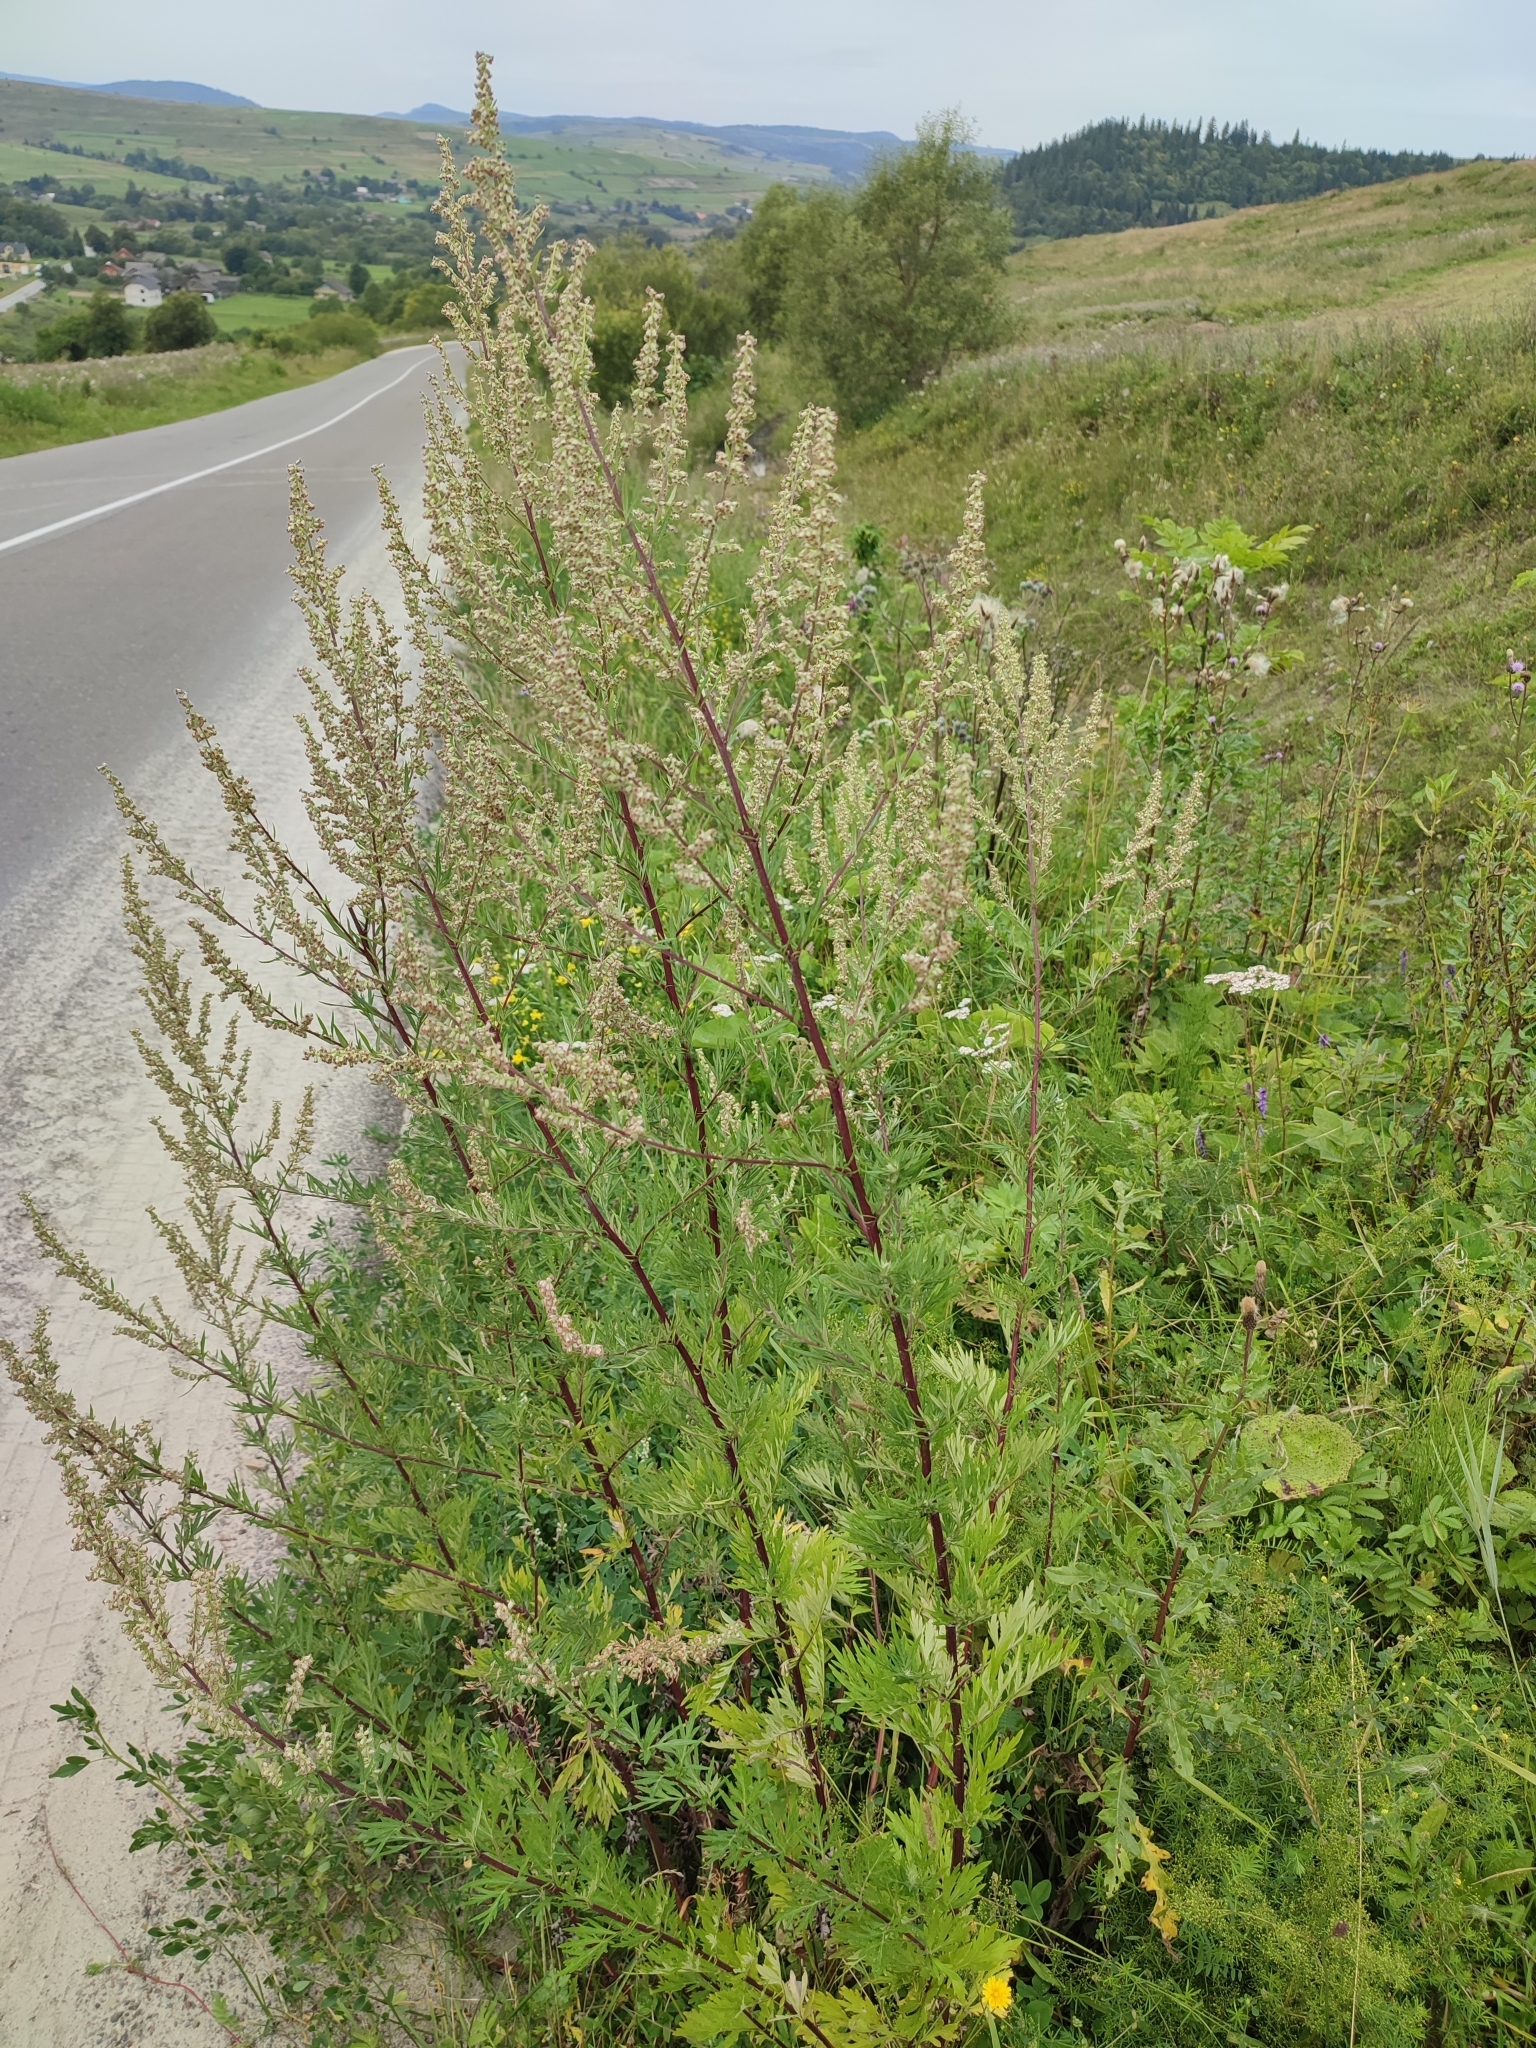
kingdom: Plantae
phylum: Tracheophyta
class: Magnoliopsida
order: Asterales
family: Asteraceae
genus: Artemisia
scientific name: Artemisia vulgaris
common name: Mugwort
